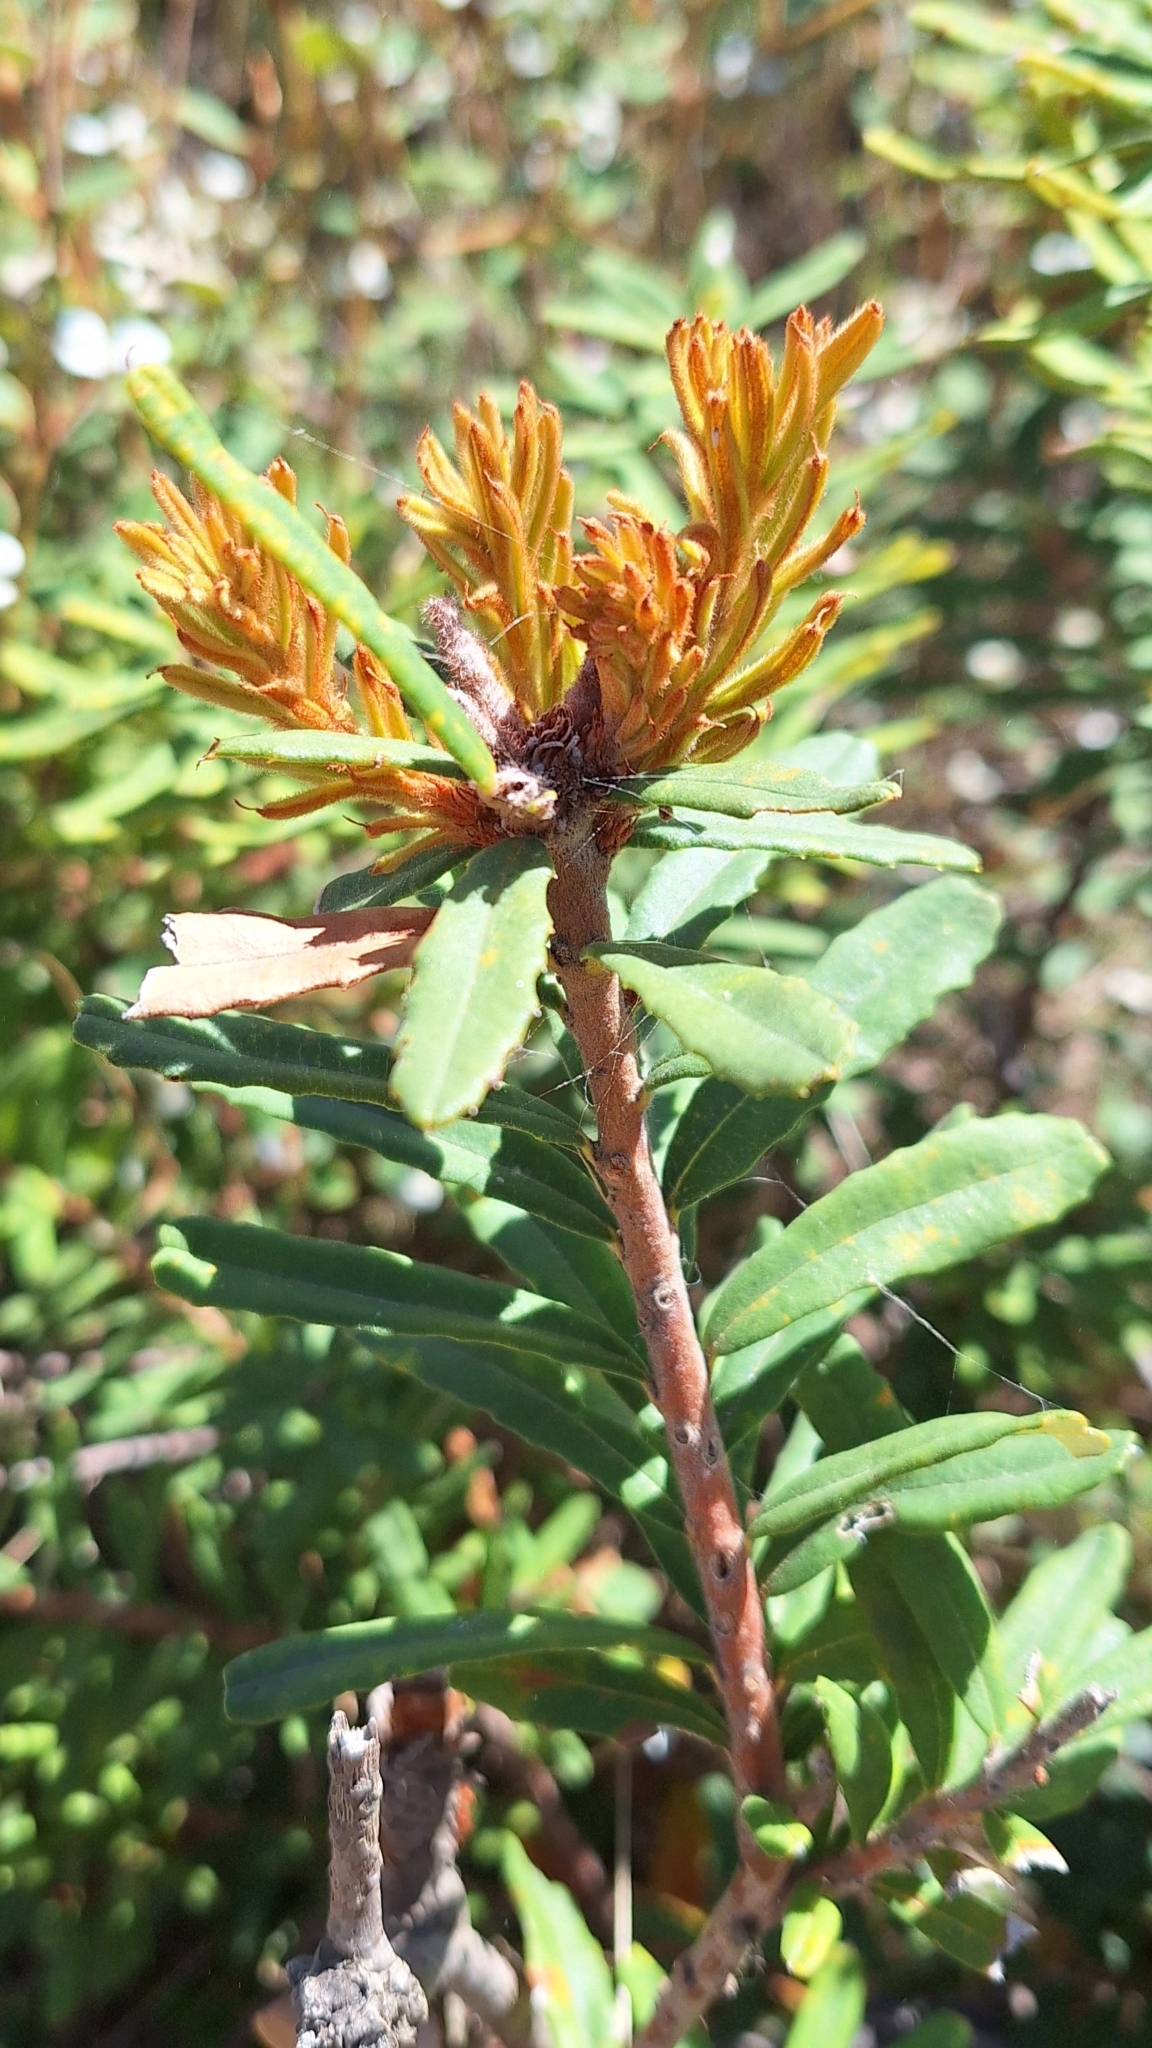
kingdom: Plantae
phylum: Tracheophyta
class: Magnoliopsida
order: Proteales
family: Proteaceae
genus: Banksia
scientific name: Banksia marginata
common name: Silver banksia
